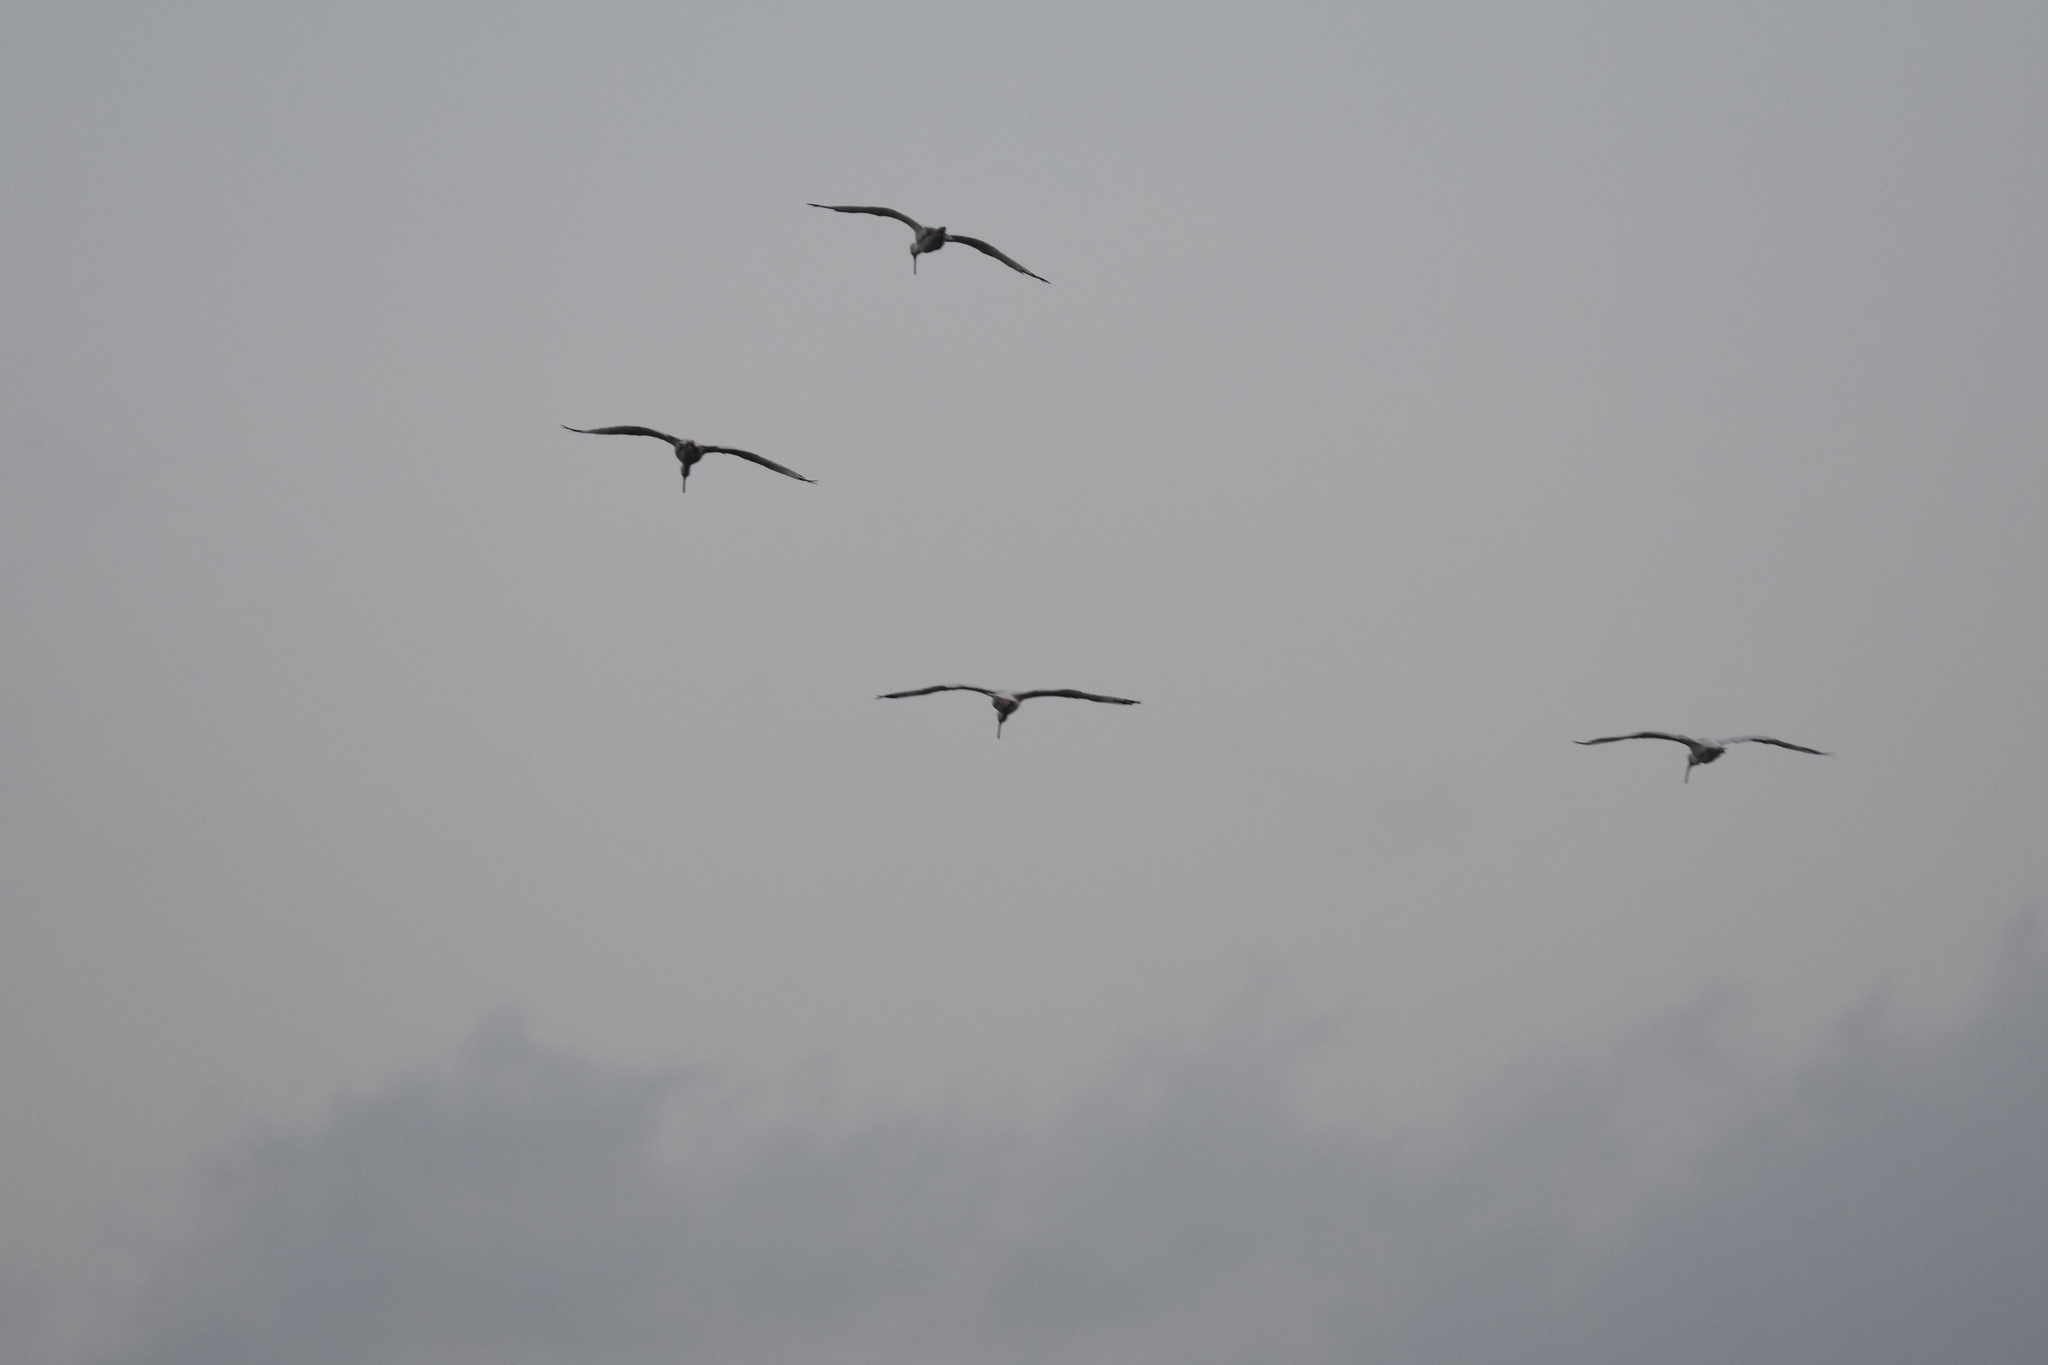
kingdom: Animalia
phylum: Chordata
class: Aves
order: Pelecaniformes
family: Threskiornithidae
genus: Eudocimus
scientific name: Eudocimus albus
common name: White ibis
